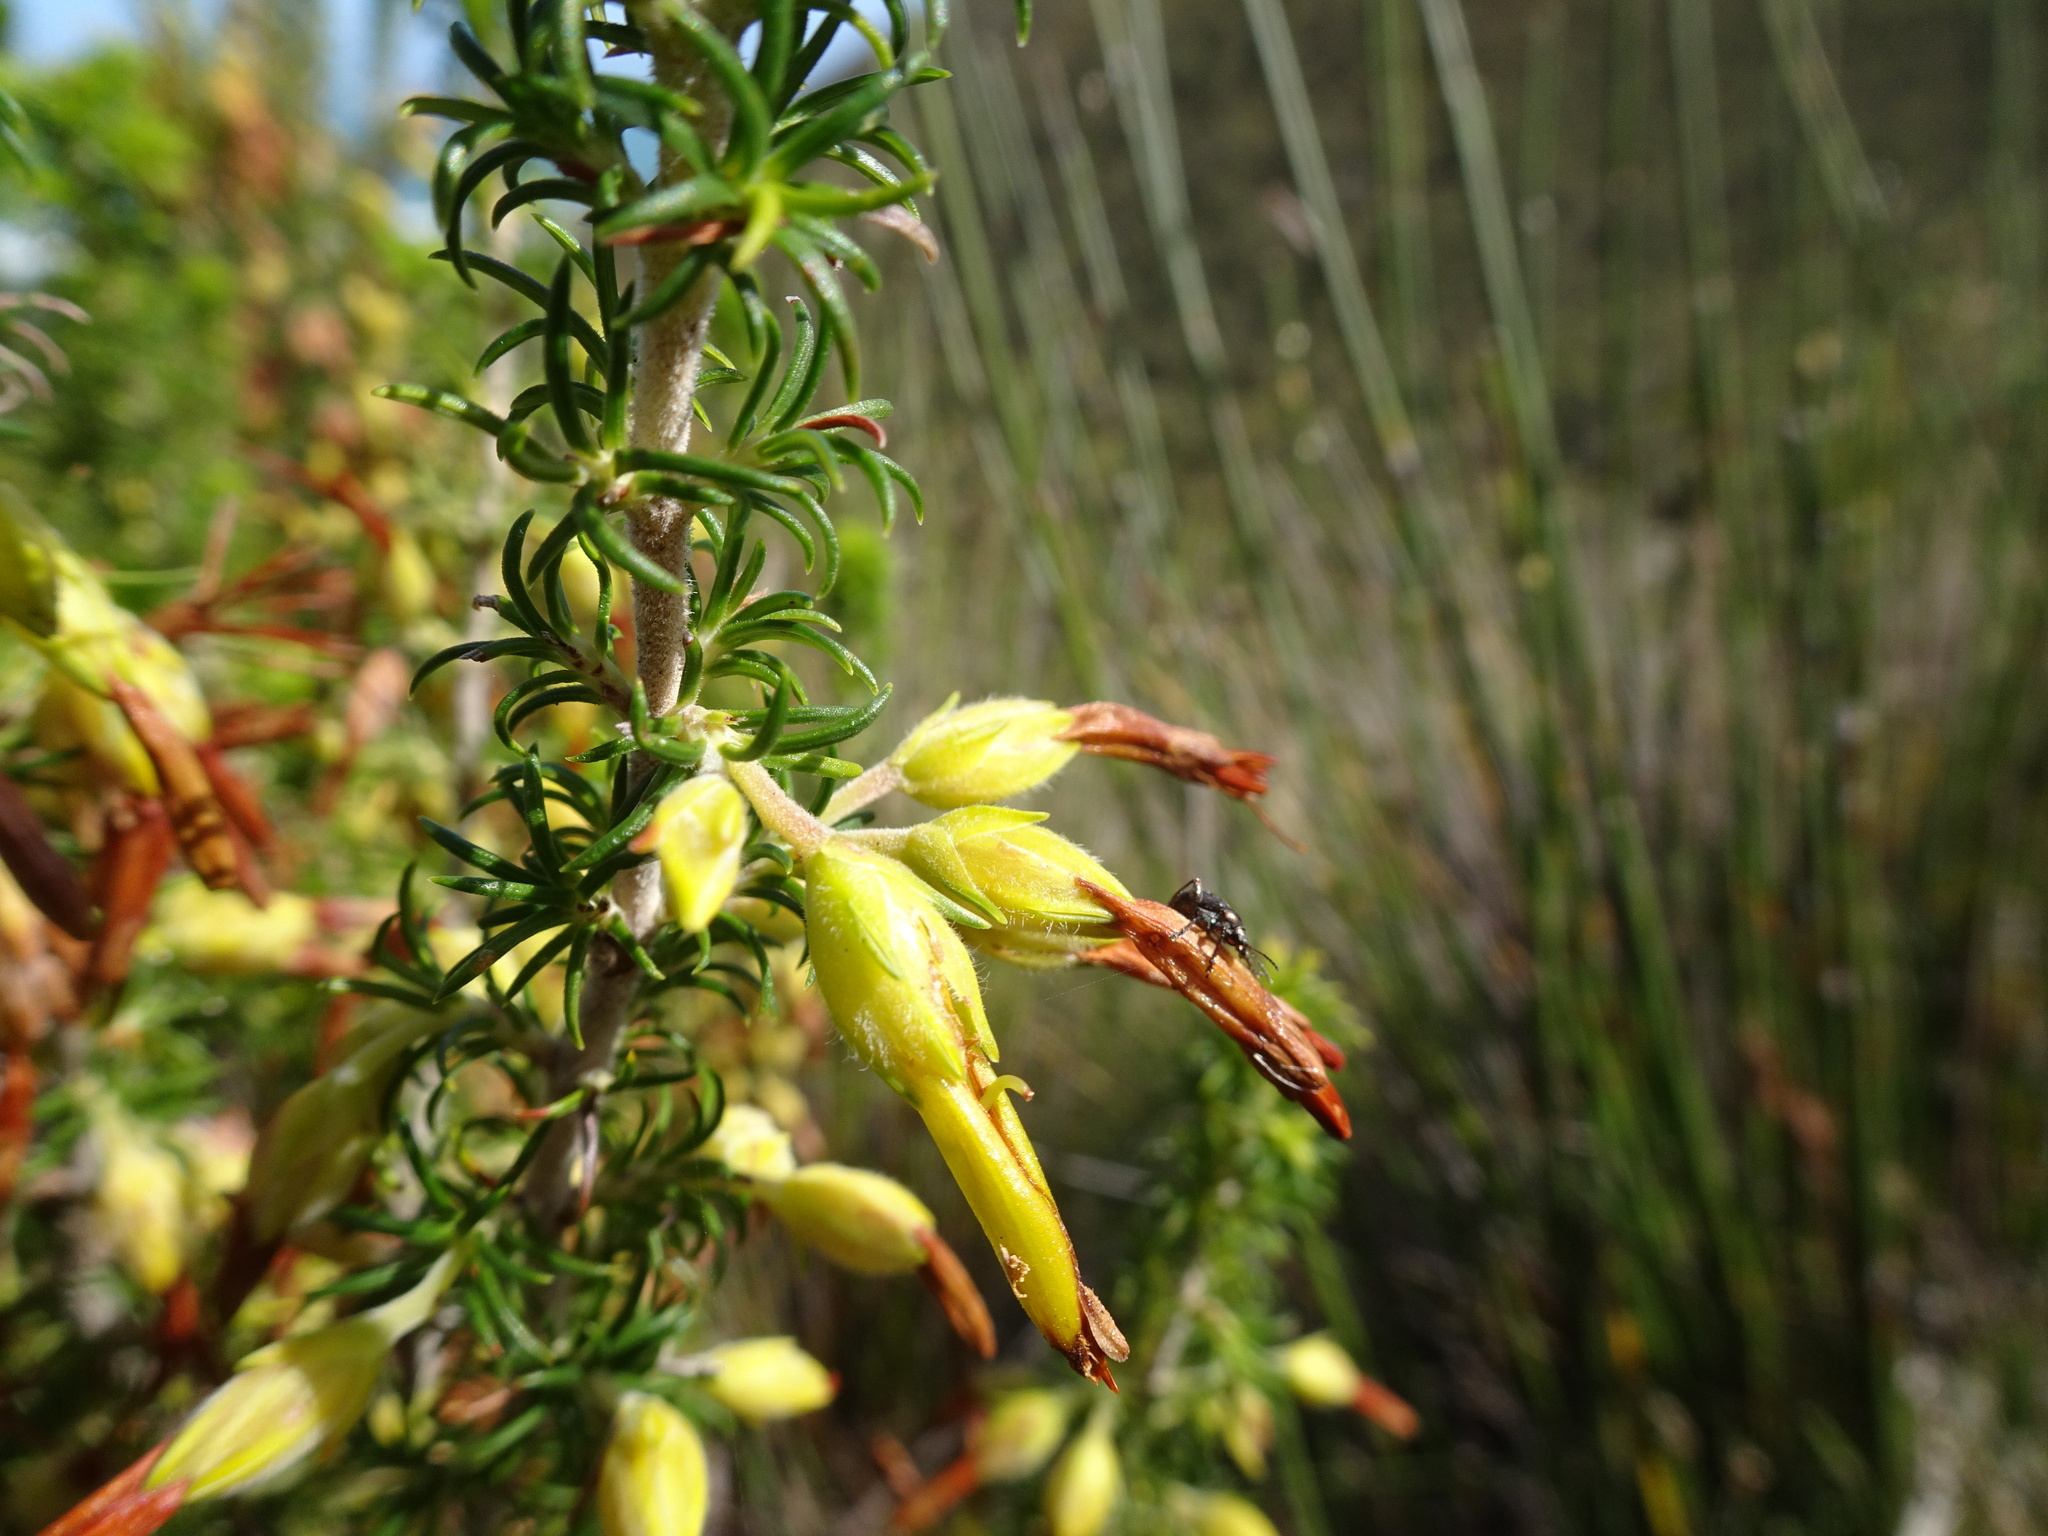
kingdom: Plantae
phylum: Tracheophyta
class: Magnoliopsida
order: Ericales
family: Ericaceae
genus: Erica
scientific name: Erica coccinea
